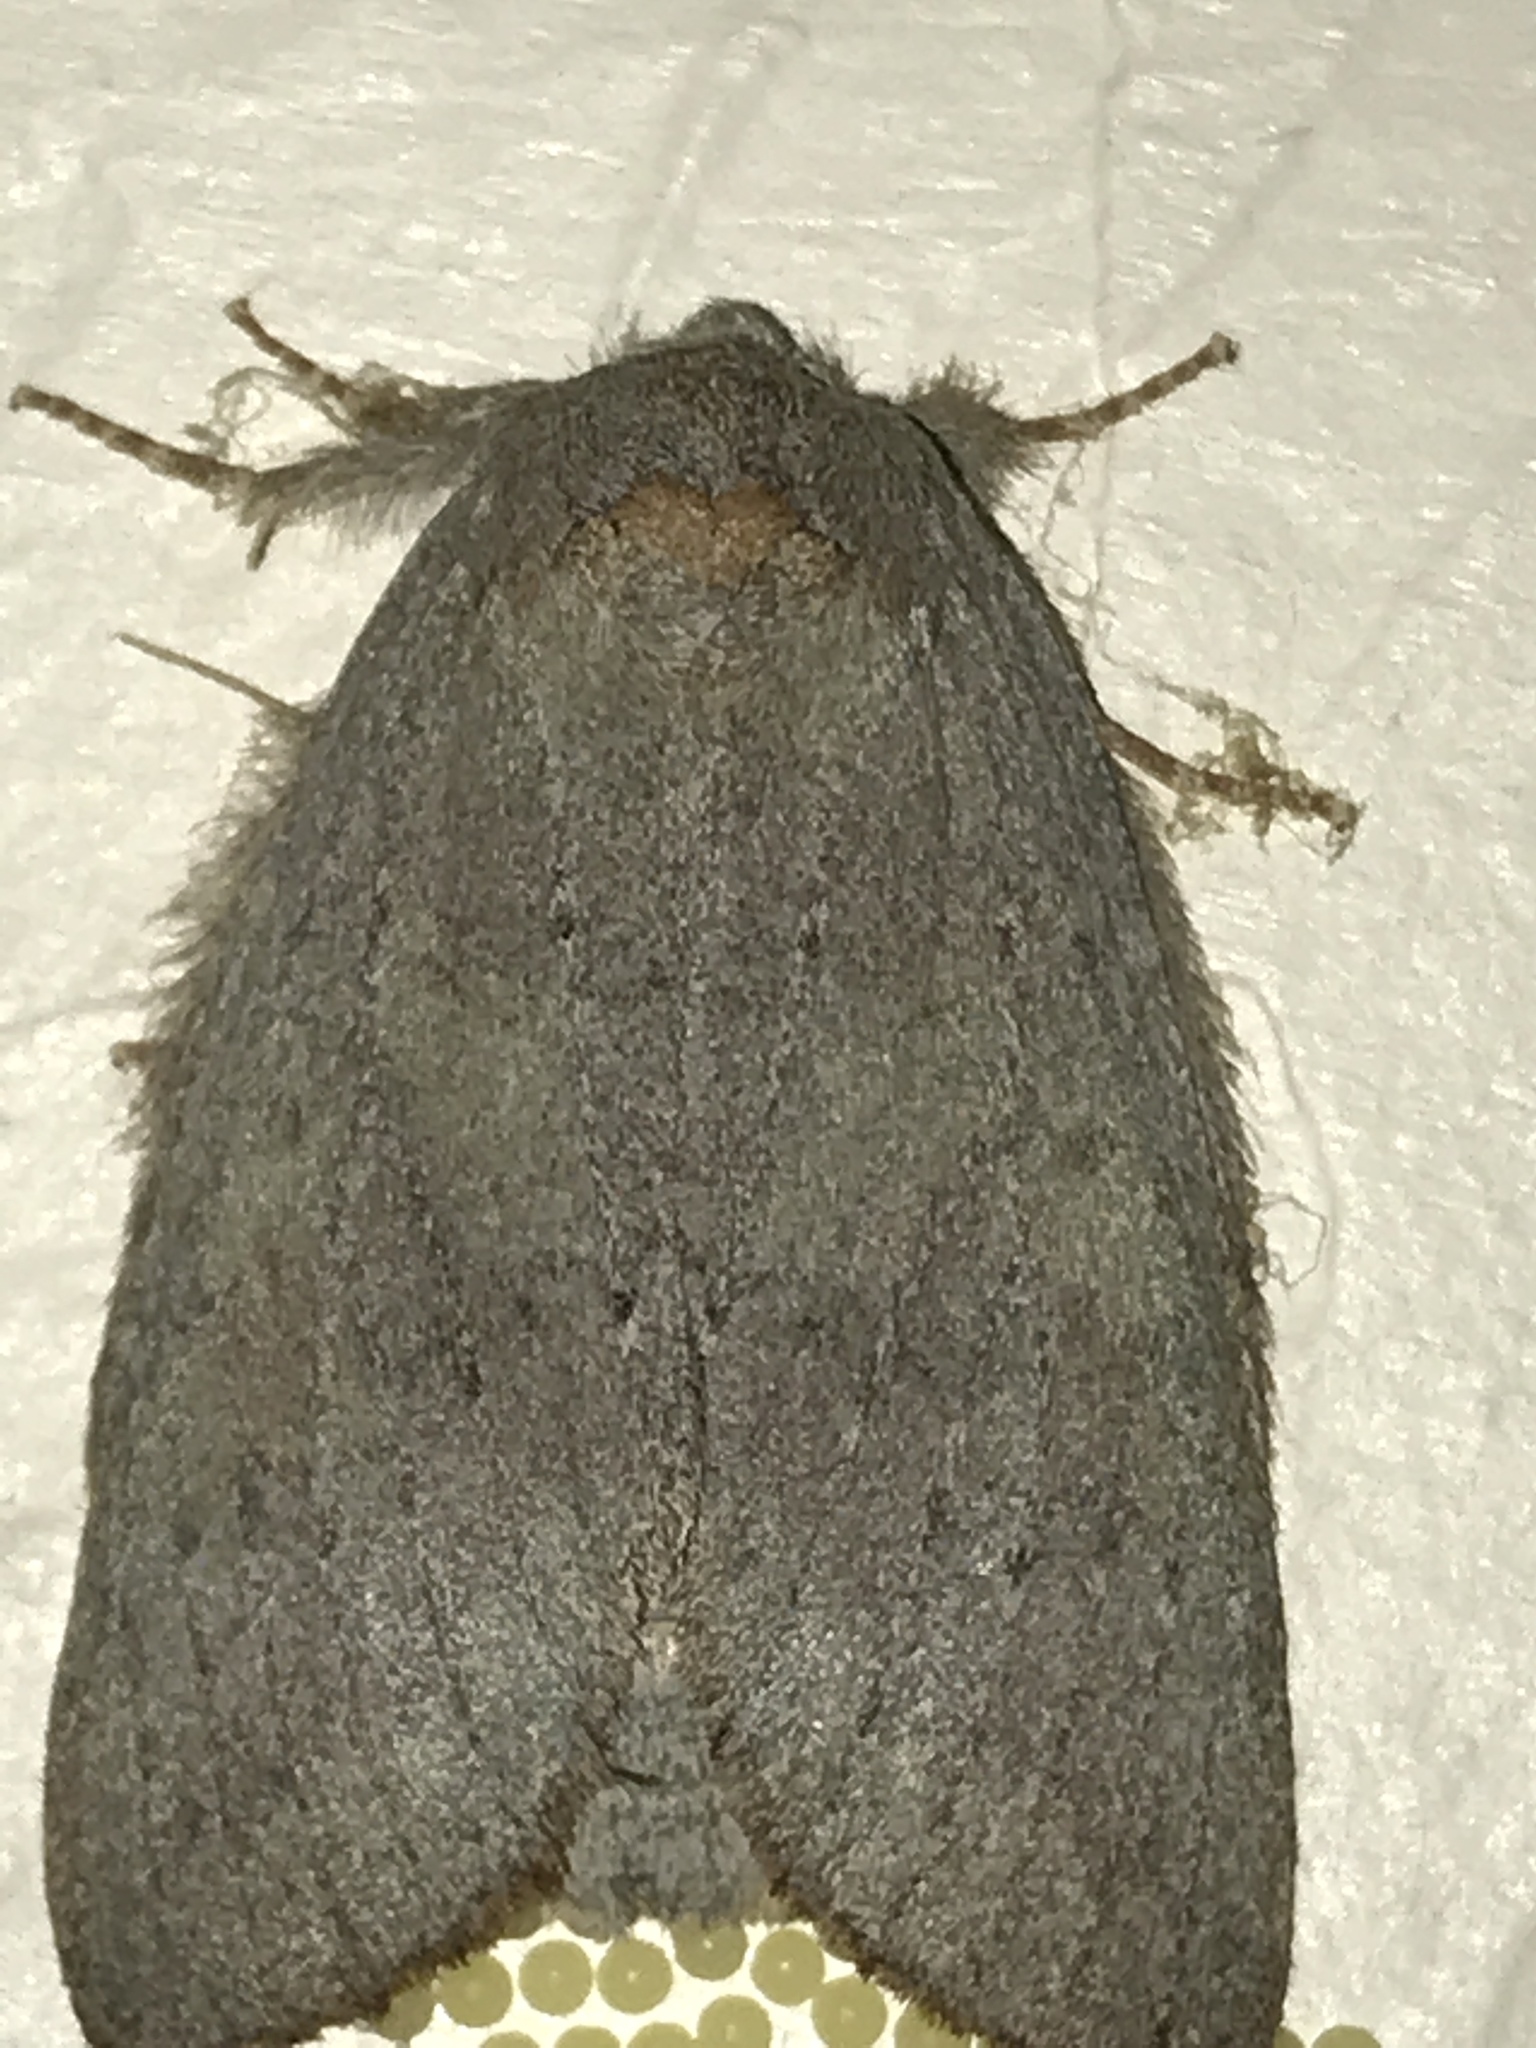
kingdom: Animalia
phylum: Arthropoda
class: Insecta
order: Lepidoptera
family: Notodontidae
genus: Misogada
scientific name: Misogada unicolor
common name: Drab prominent
